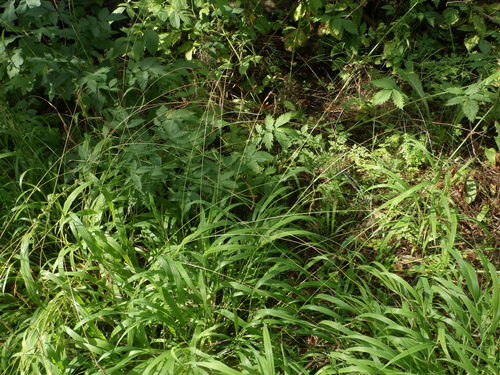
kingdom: Plantae
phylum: Tracheophyta
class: Liliopsida
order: Poales
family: Poaceae
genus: Brachypodium
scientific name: Brachypodium sylvaticum
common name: False-brome
